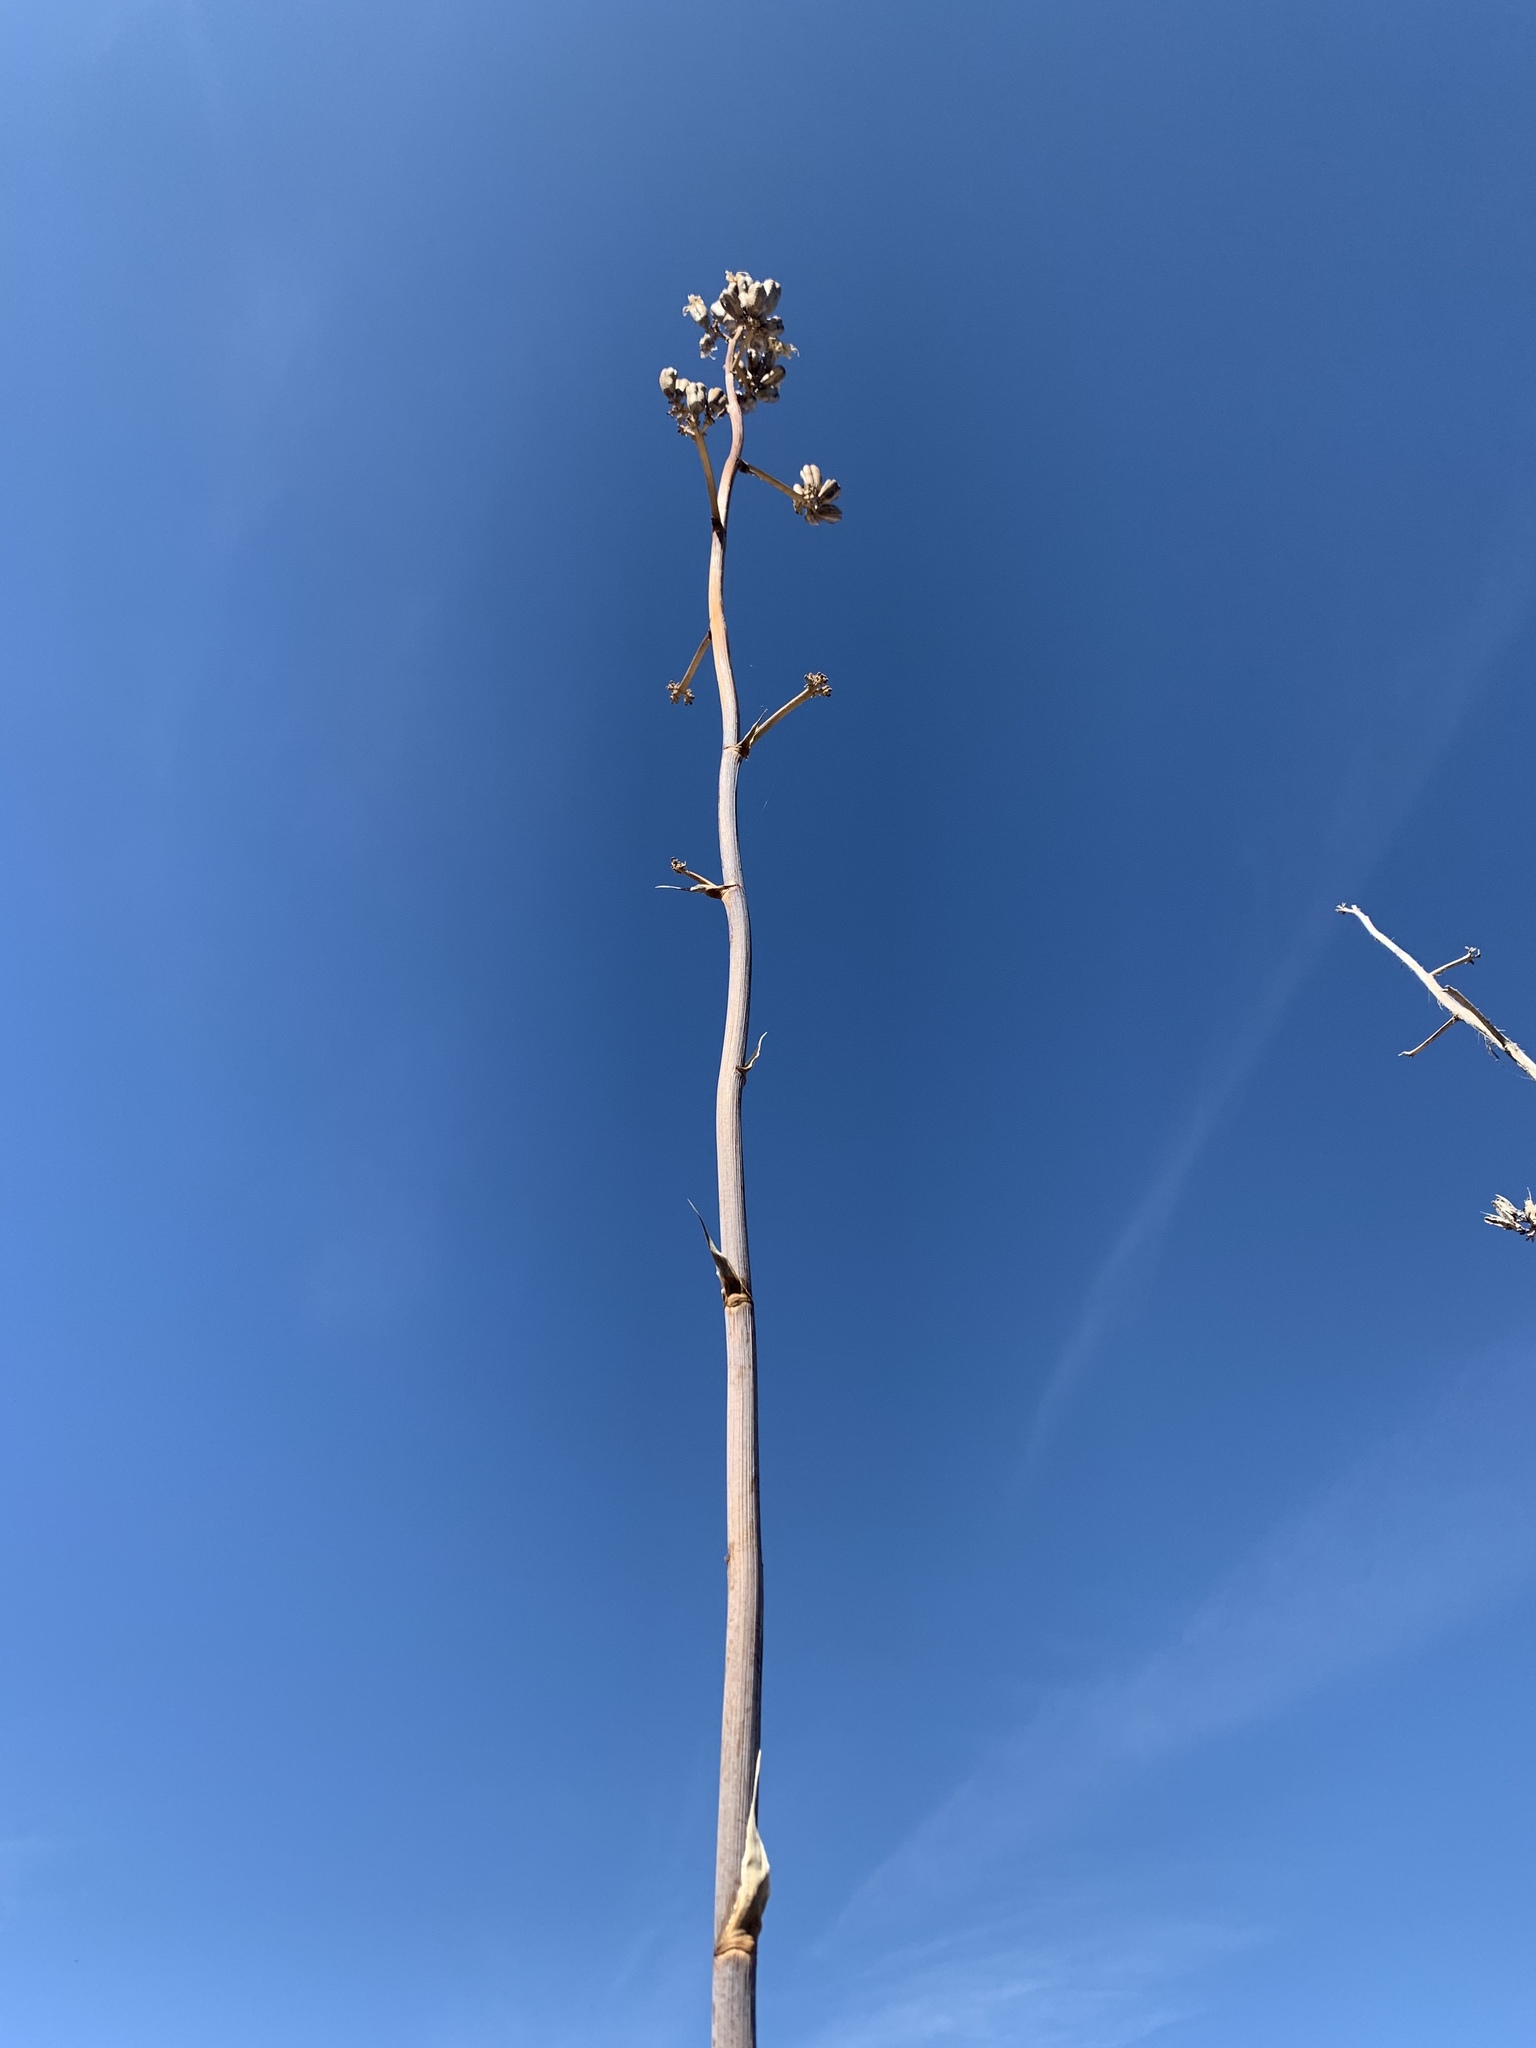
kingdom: Plantae
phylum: Tracheophyta
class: Liliopsida
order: Asparagales
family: Asparagaceae
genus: Agave
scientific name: Agave mckelveyana
